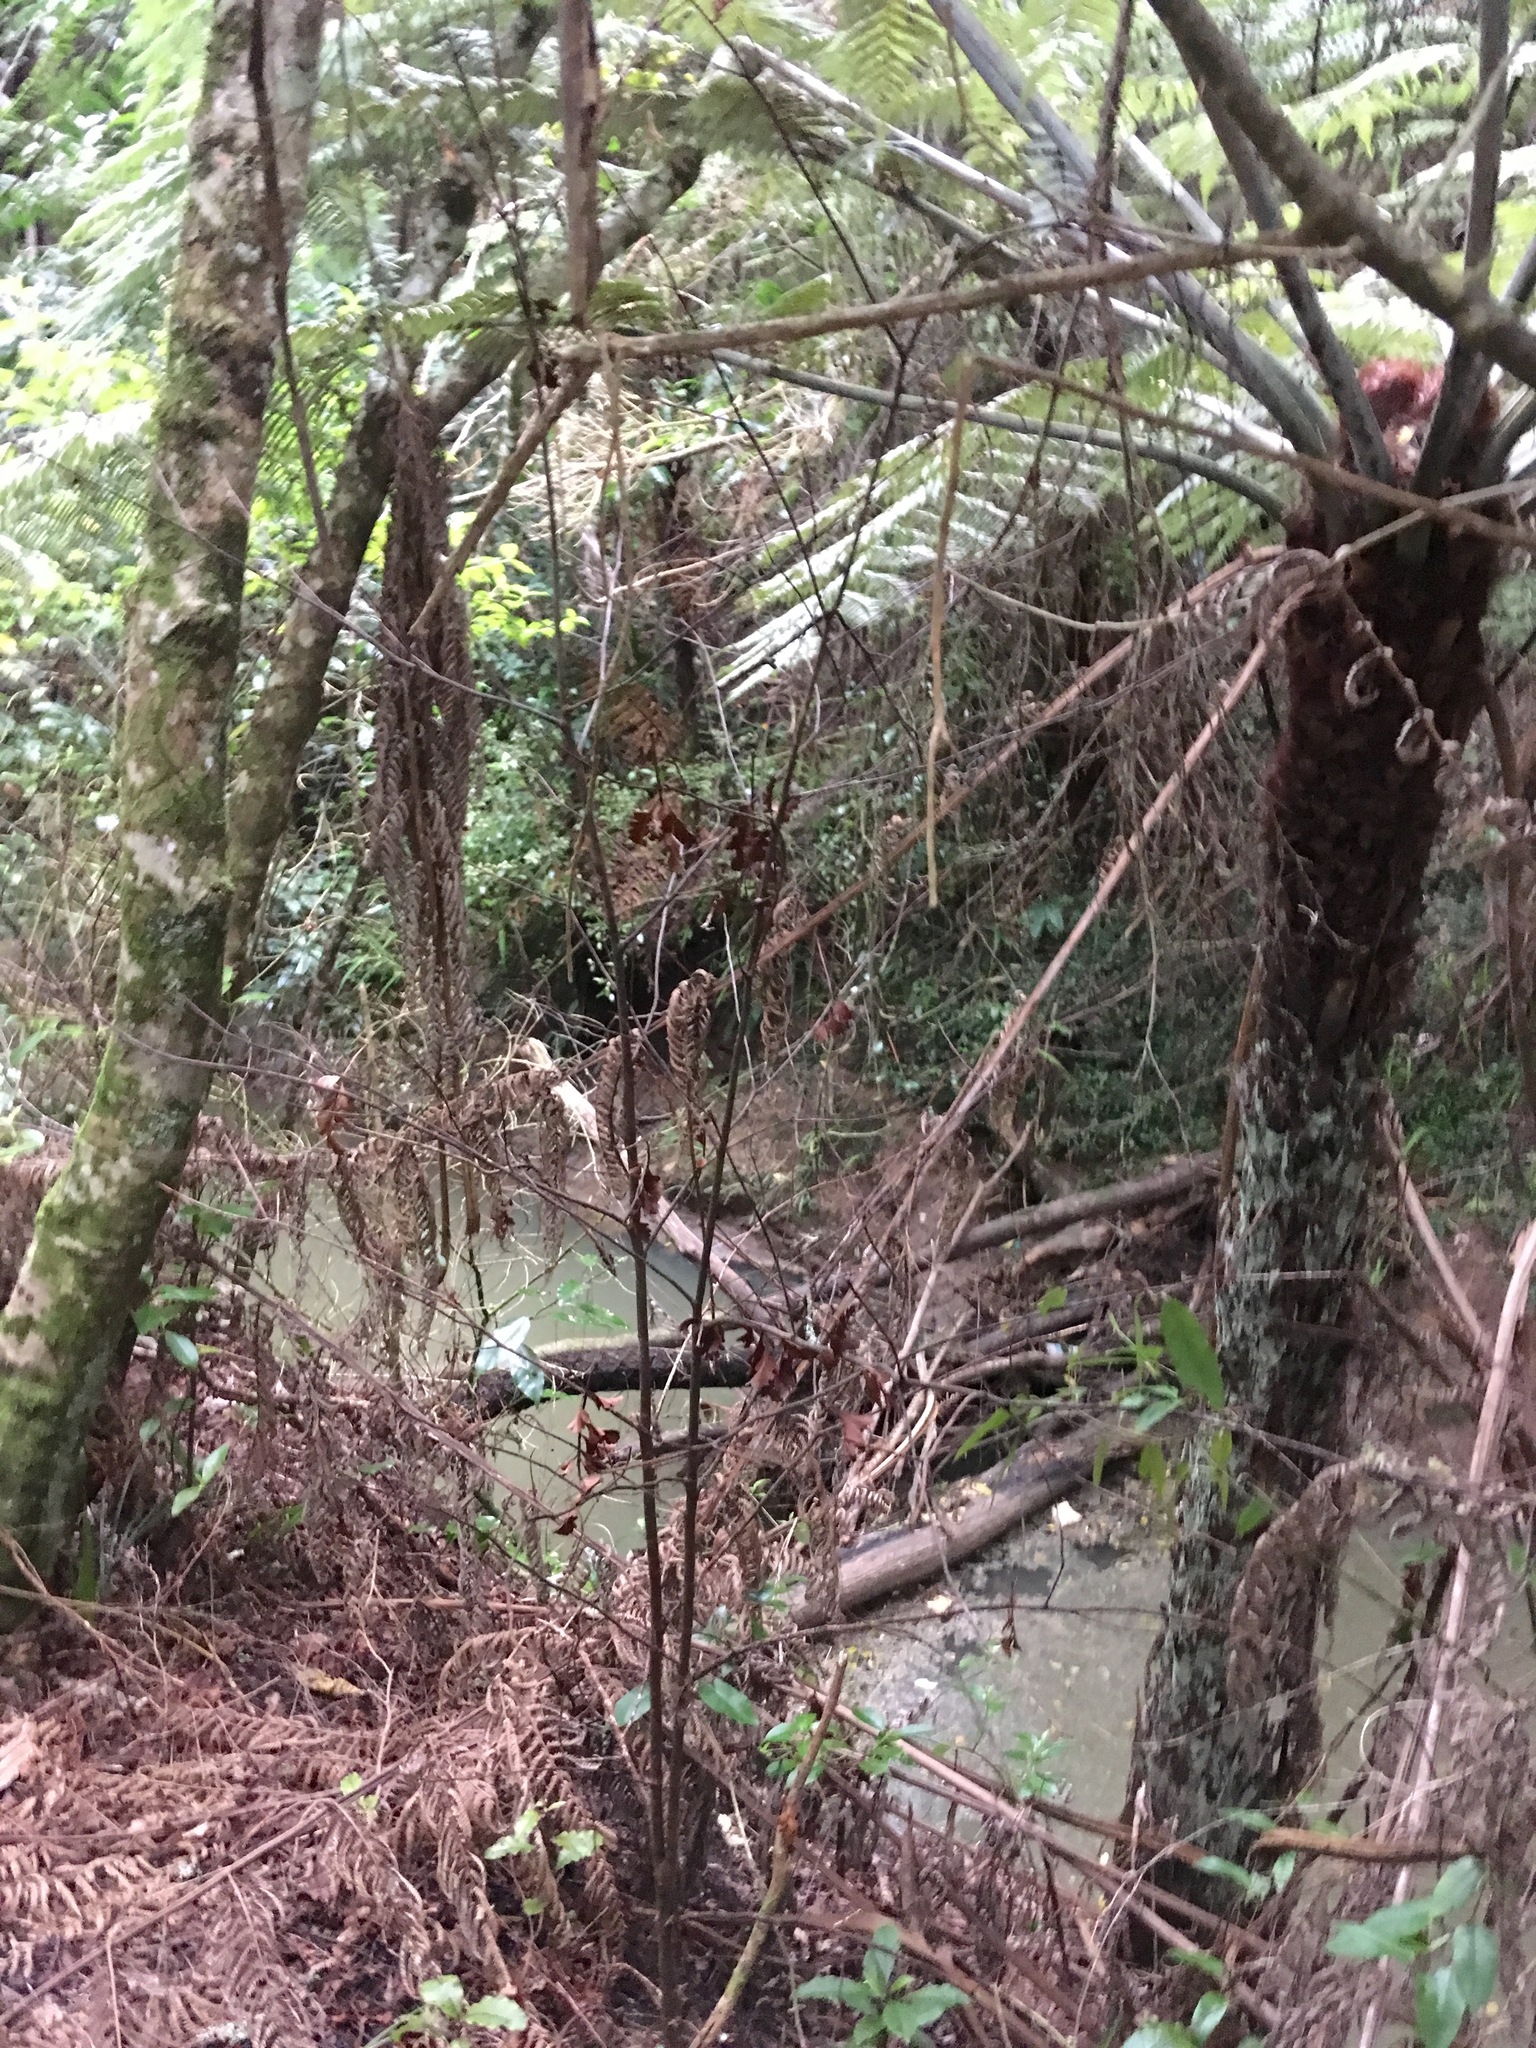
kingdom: Plantae
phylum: Tracheophyta
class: Polypodiopsida
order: Cyatheales
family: Cyatheaceae
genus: Alsophila
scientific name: Alsophila dealbata
